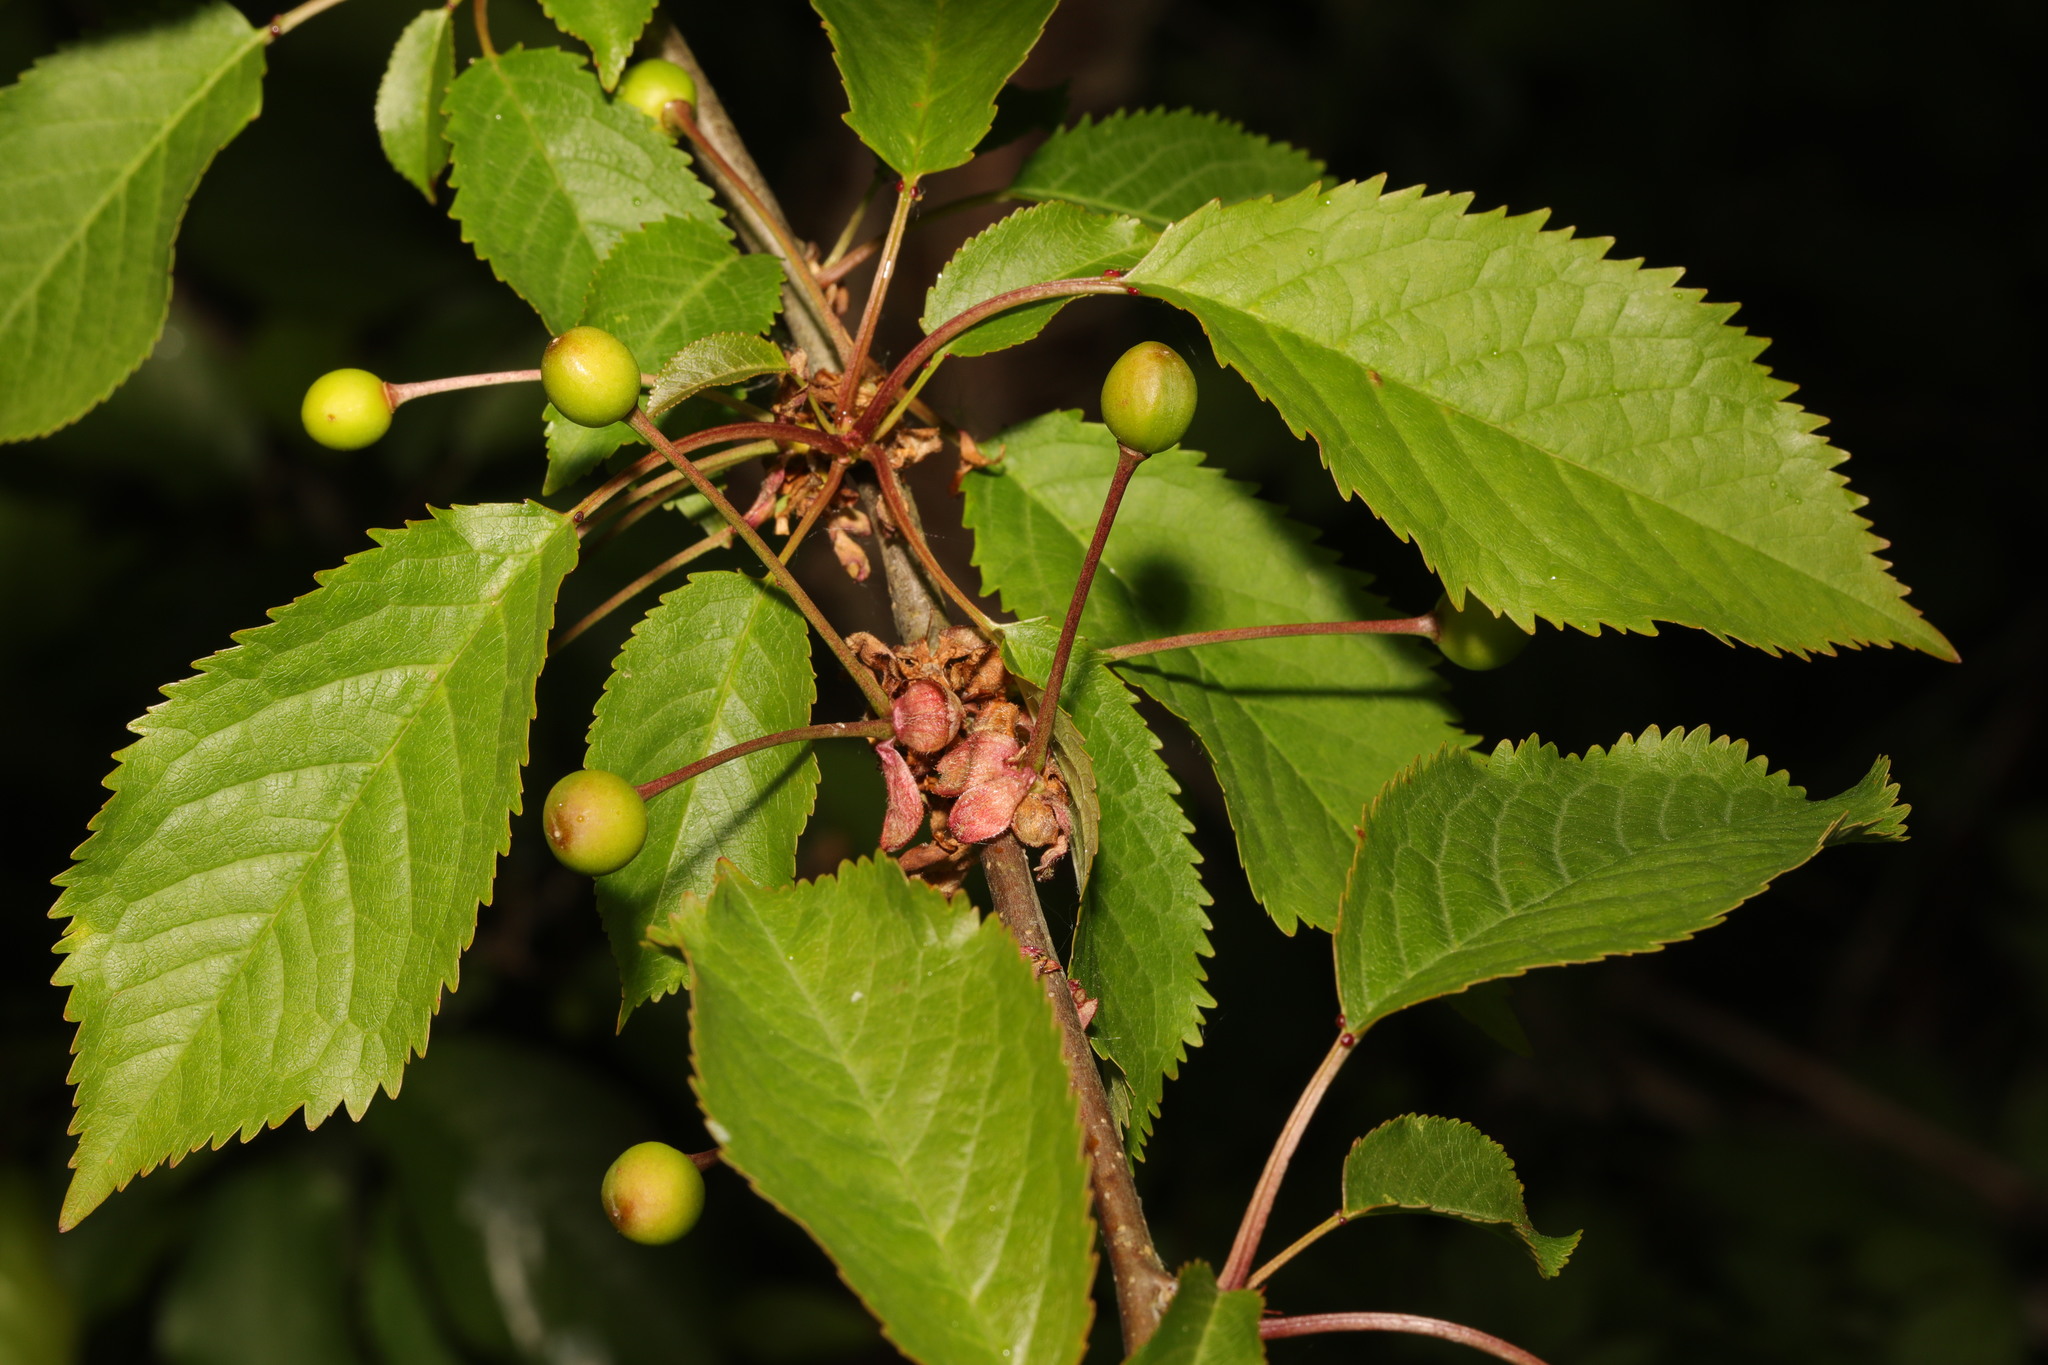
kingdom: Plantae
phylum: Tracheophyta
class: Magnoliopsida
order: Rosales
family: Rosaceae
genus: Prunus
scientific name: Prunus avium
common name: Sweet cherry
